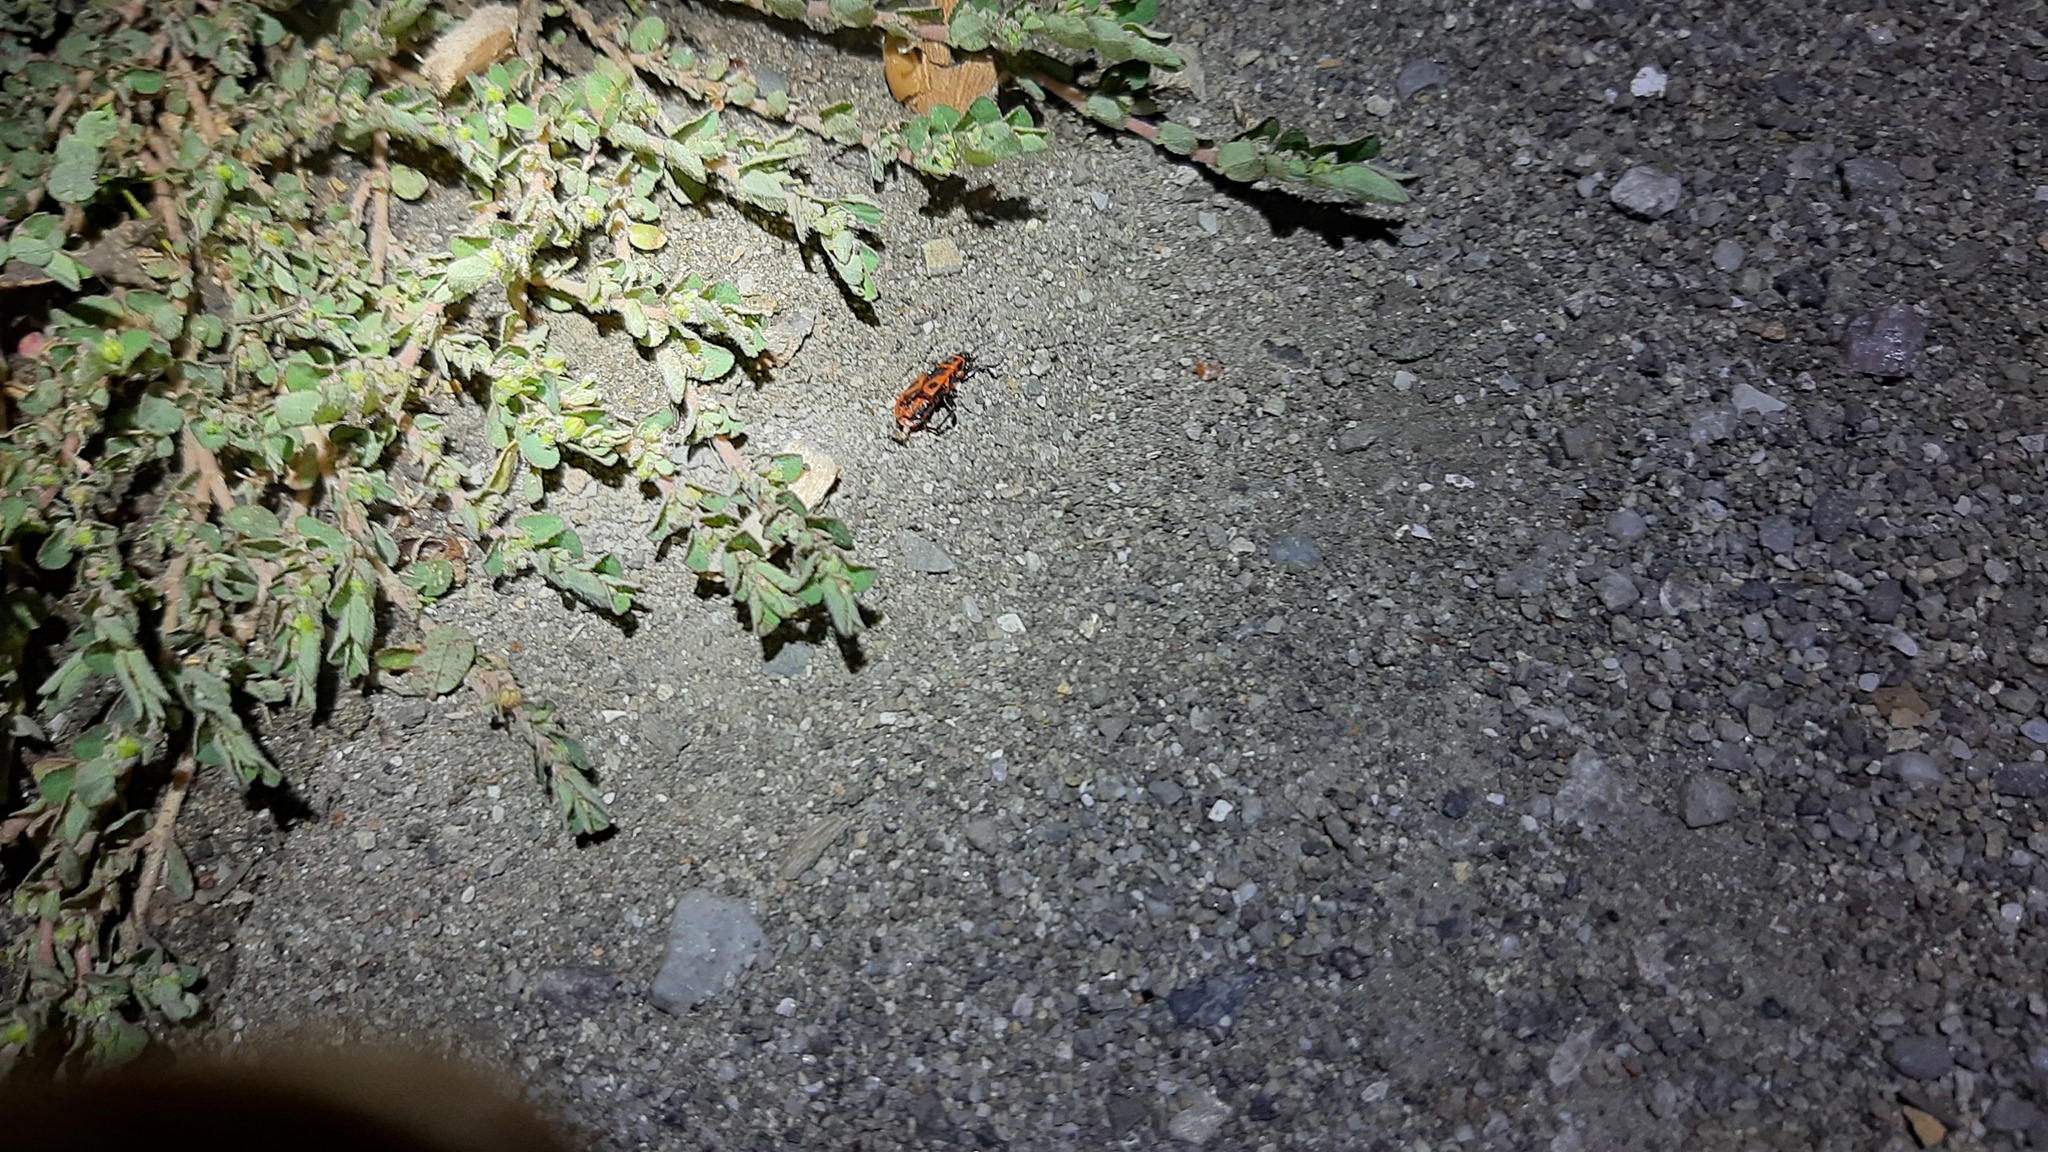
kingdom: Animalia
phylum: Arthropoda
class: Insecta
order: Hemiptera
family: Pyrrhocoridae
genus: Pyrrhocoris
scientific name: Pyrrhocoris apterus
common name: Firebug
